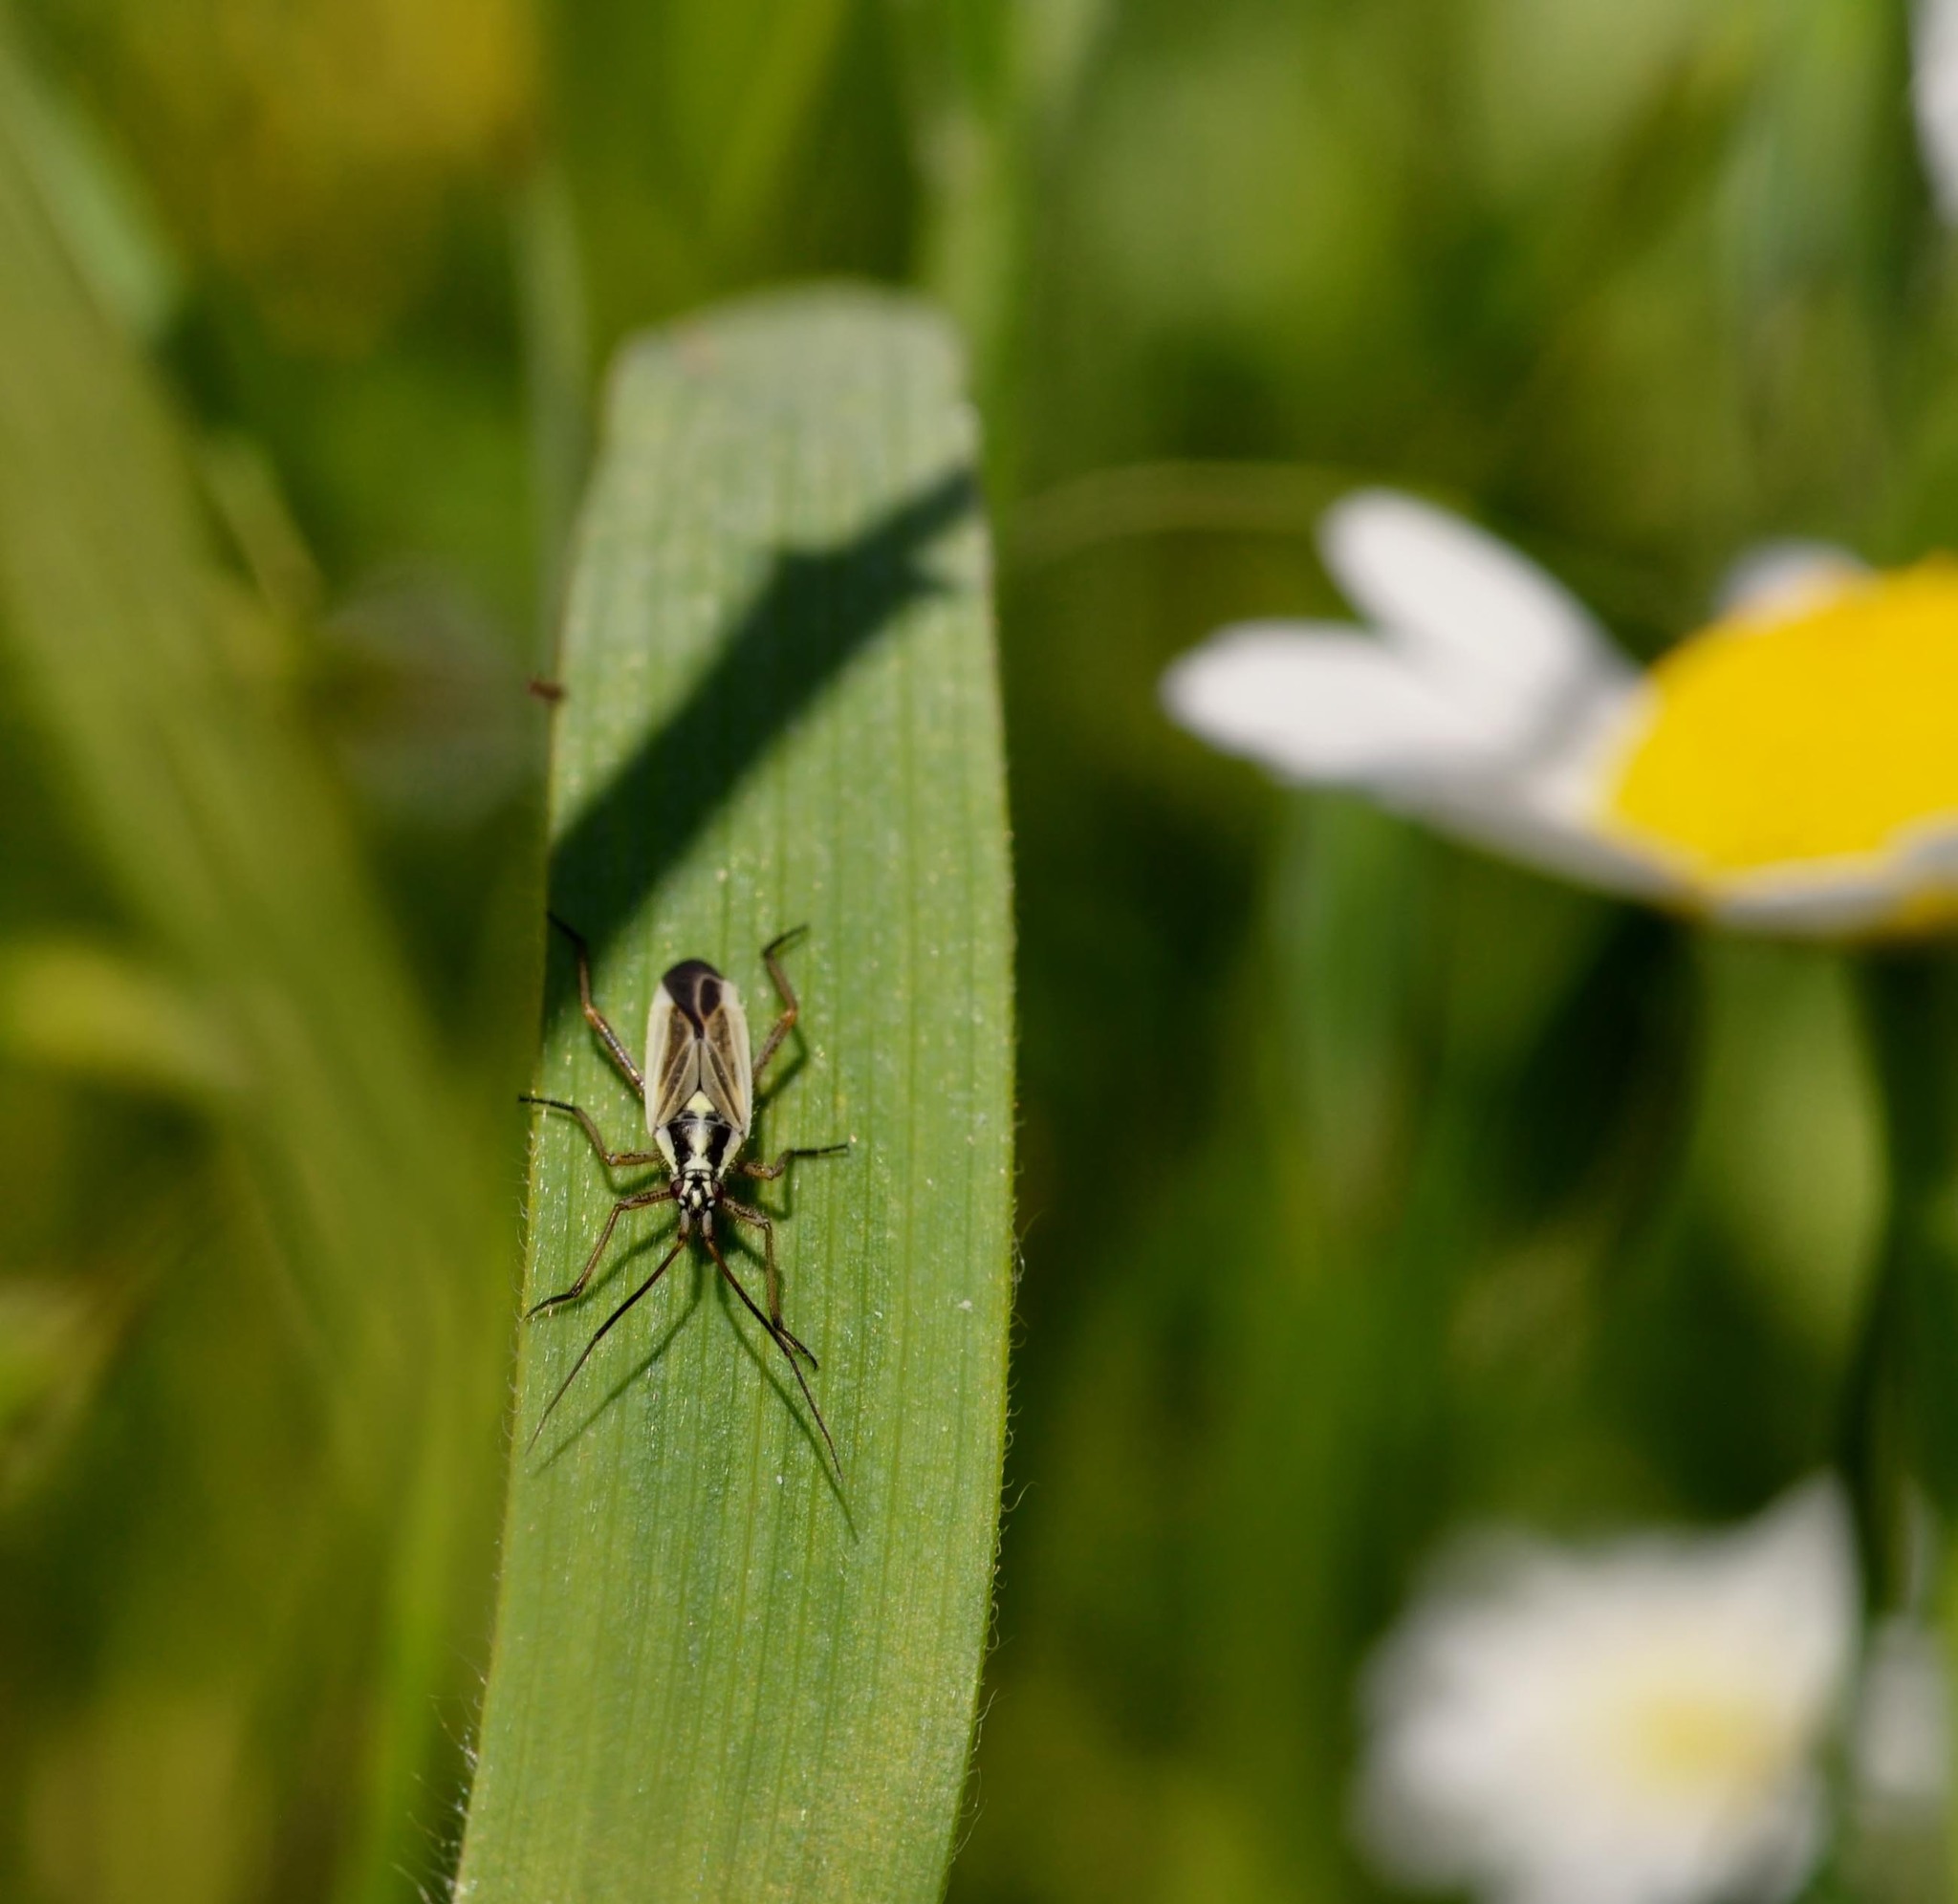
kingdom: Animalia
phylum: Arthropoda
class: Insecta
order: Hemiptera
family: Miridae
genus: Leptopterna
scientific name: Leptopterna dolabrata
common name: Meadow plant bug
